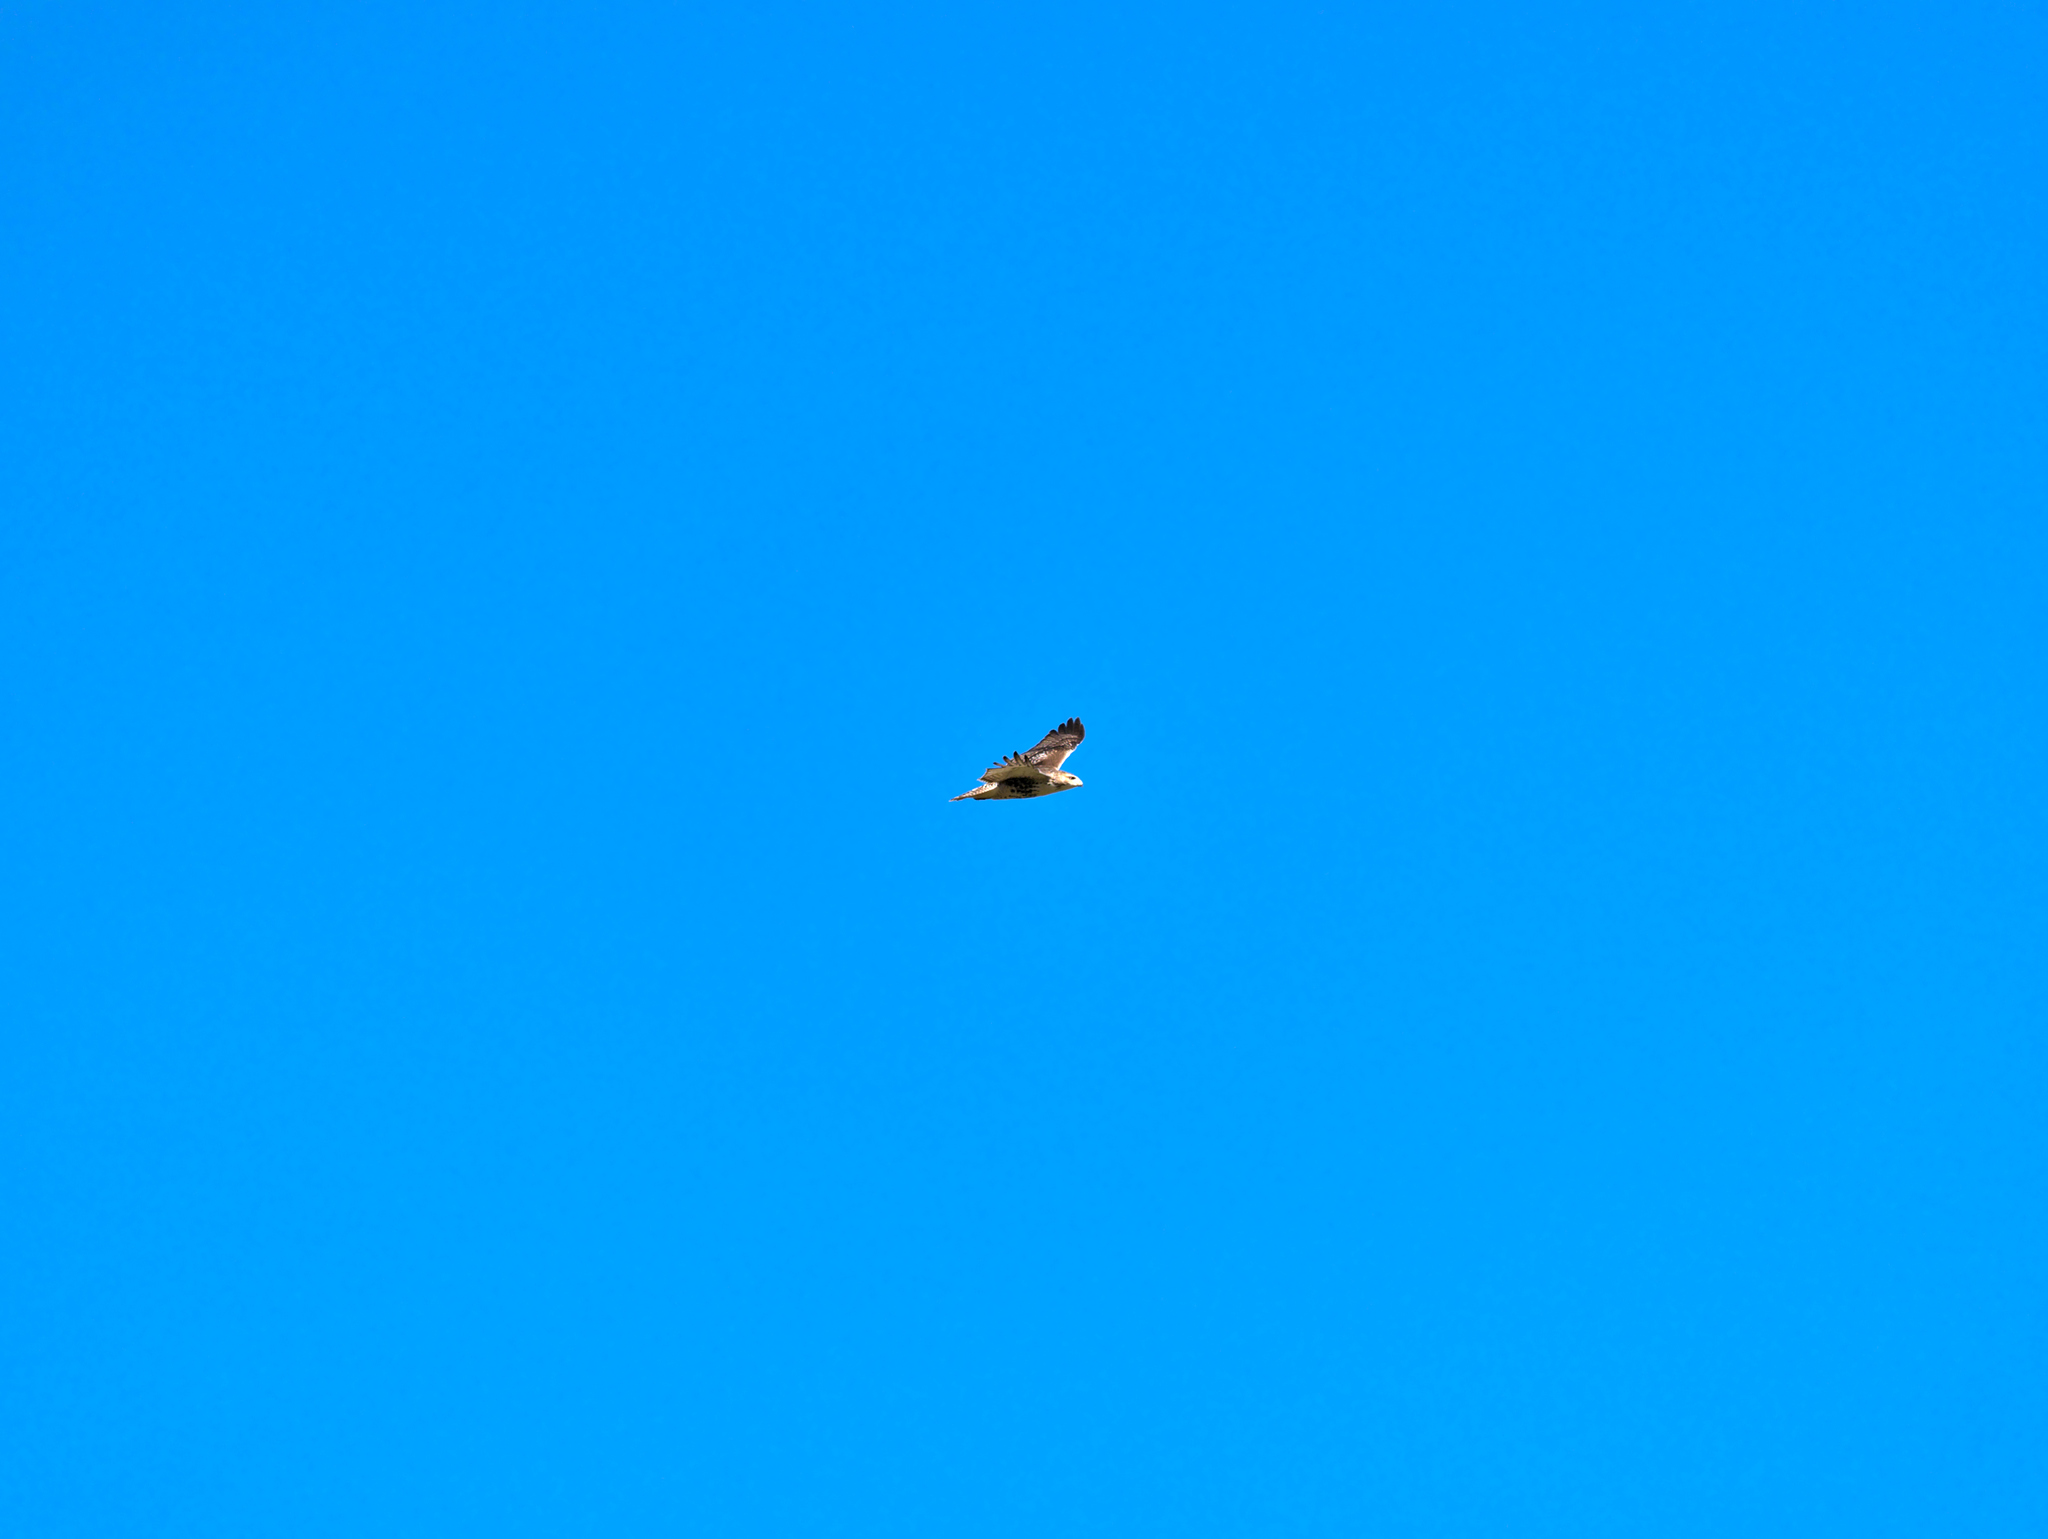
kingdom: Animalia
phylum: Chordata
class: Aves
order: Accipitriformes
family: Accipitridae
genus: Buteo
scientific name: Buteo jamaicensis
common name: Red-tailed hawk
